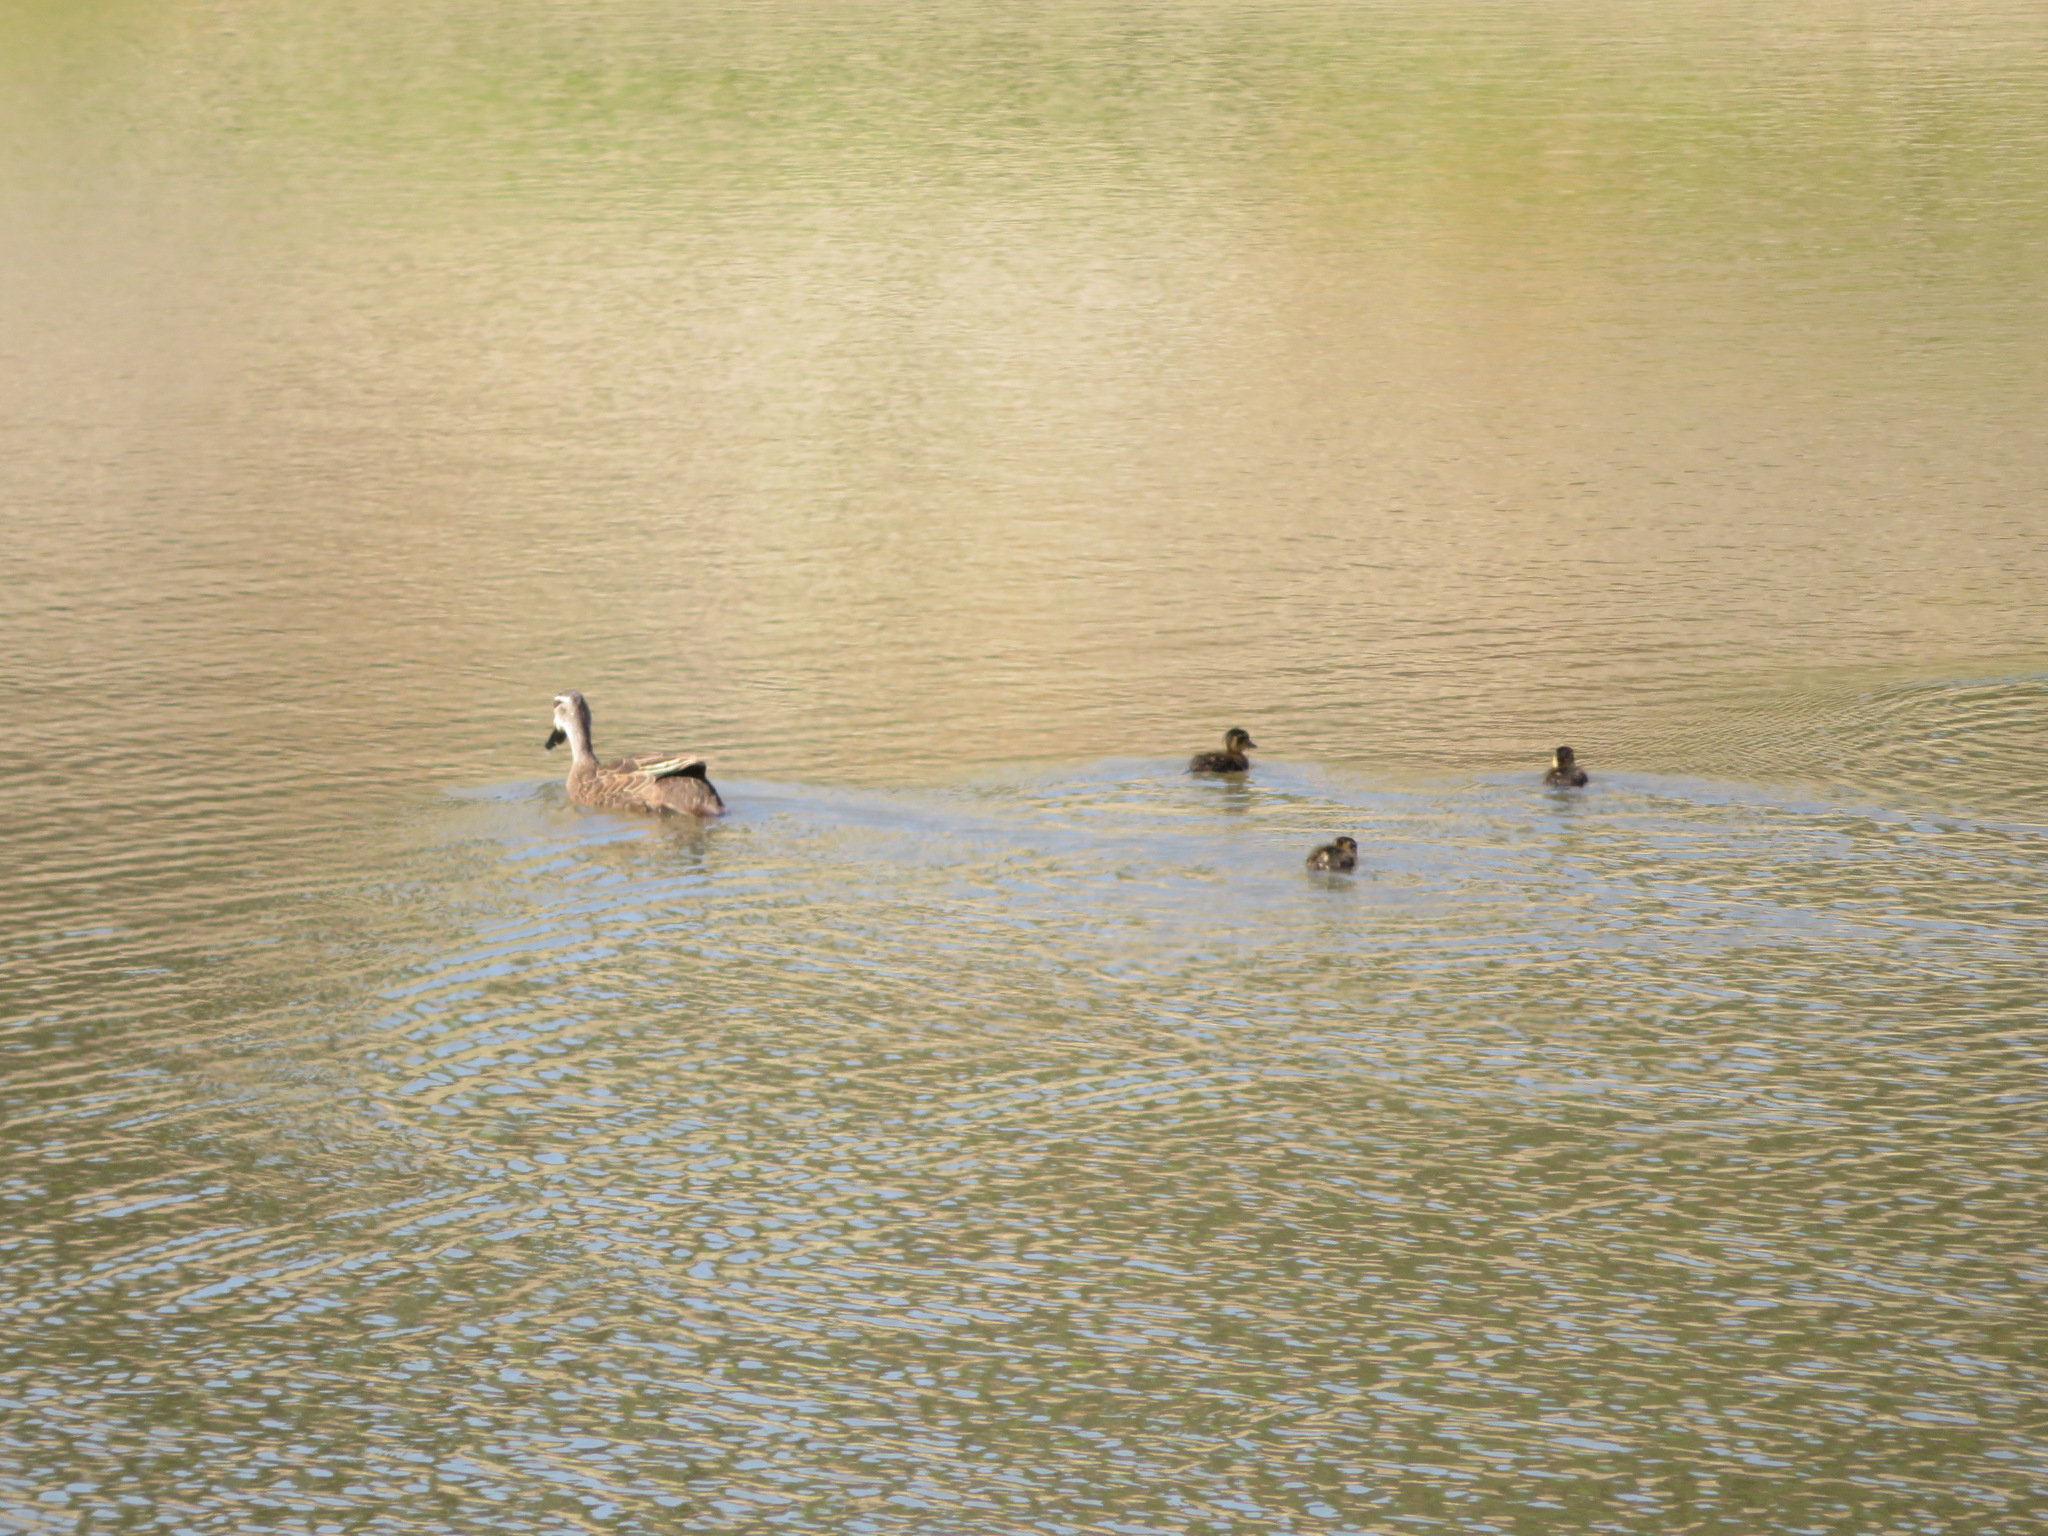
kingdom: Animalia
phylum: Chordata
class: Aves
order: Anseriformes
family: Anatidae
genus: Anas
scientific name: Anas superciliosa
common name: Pacific black duck
